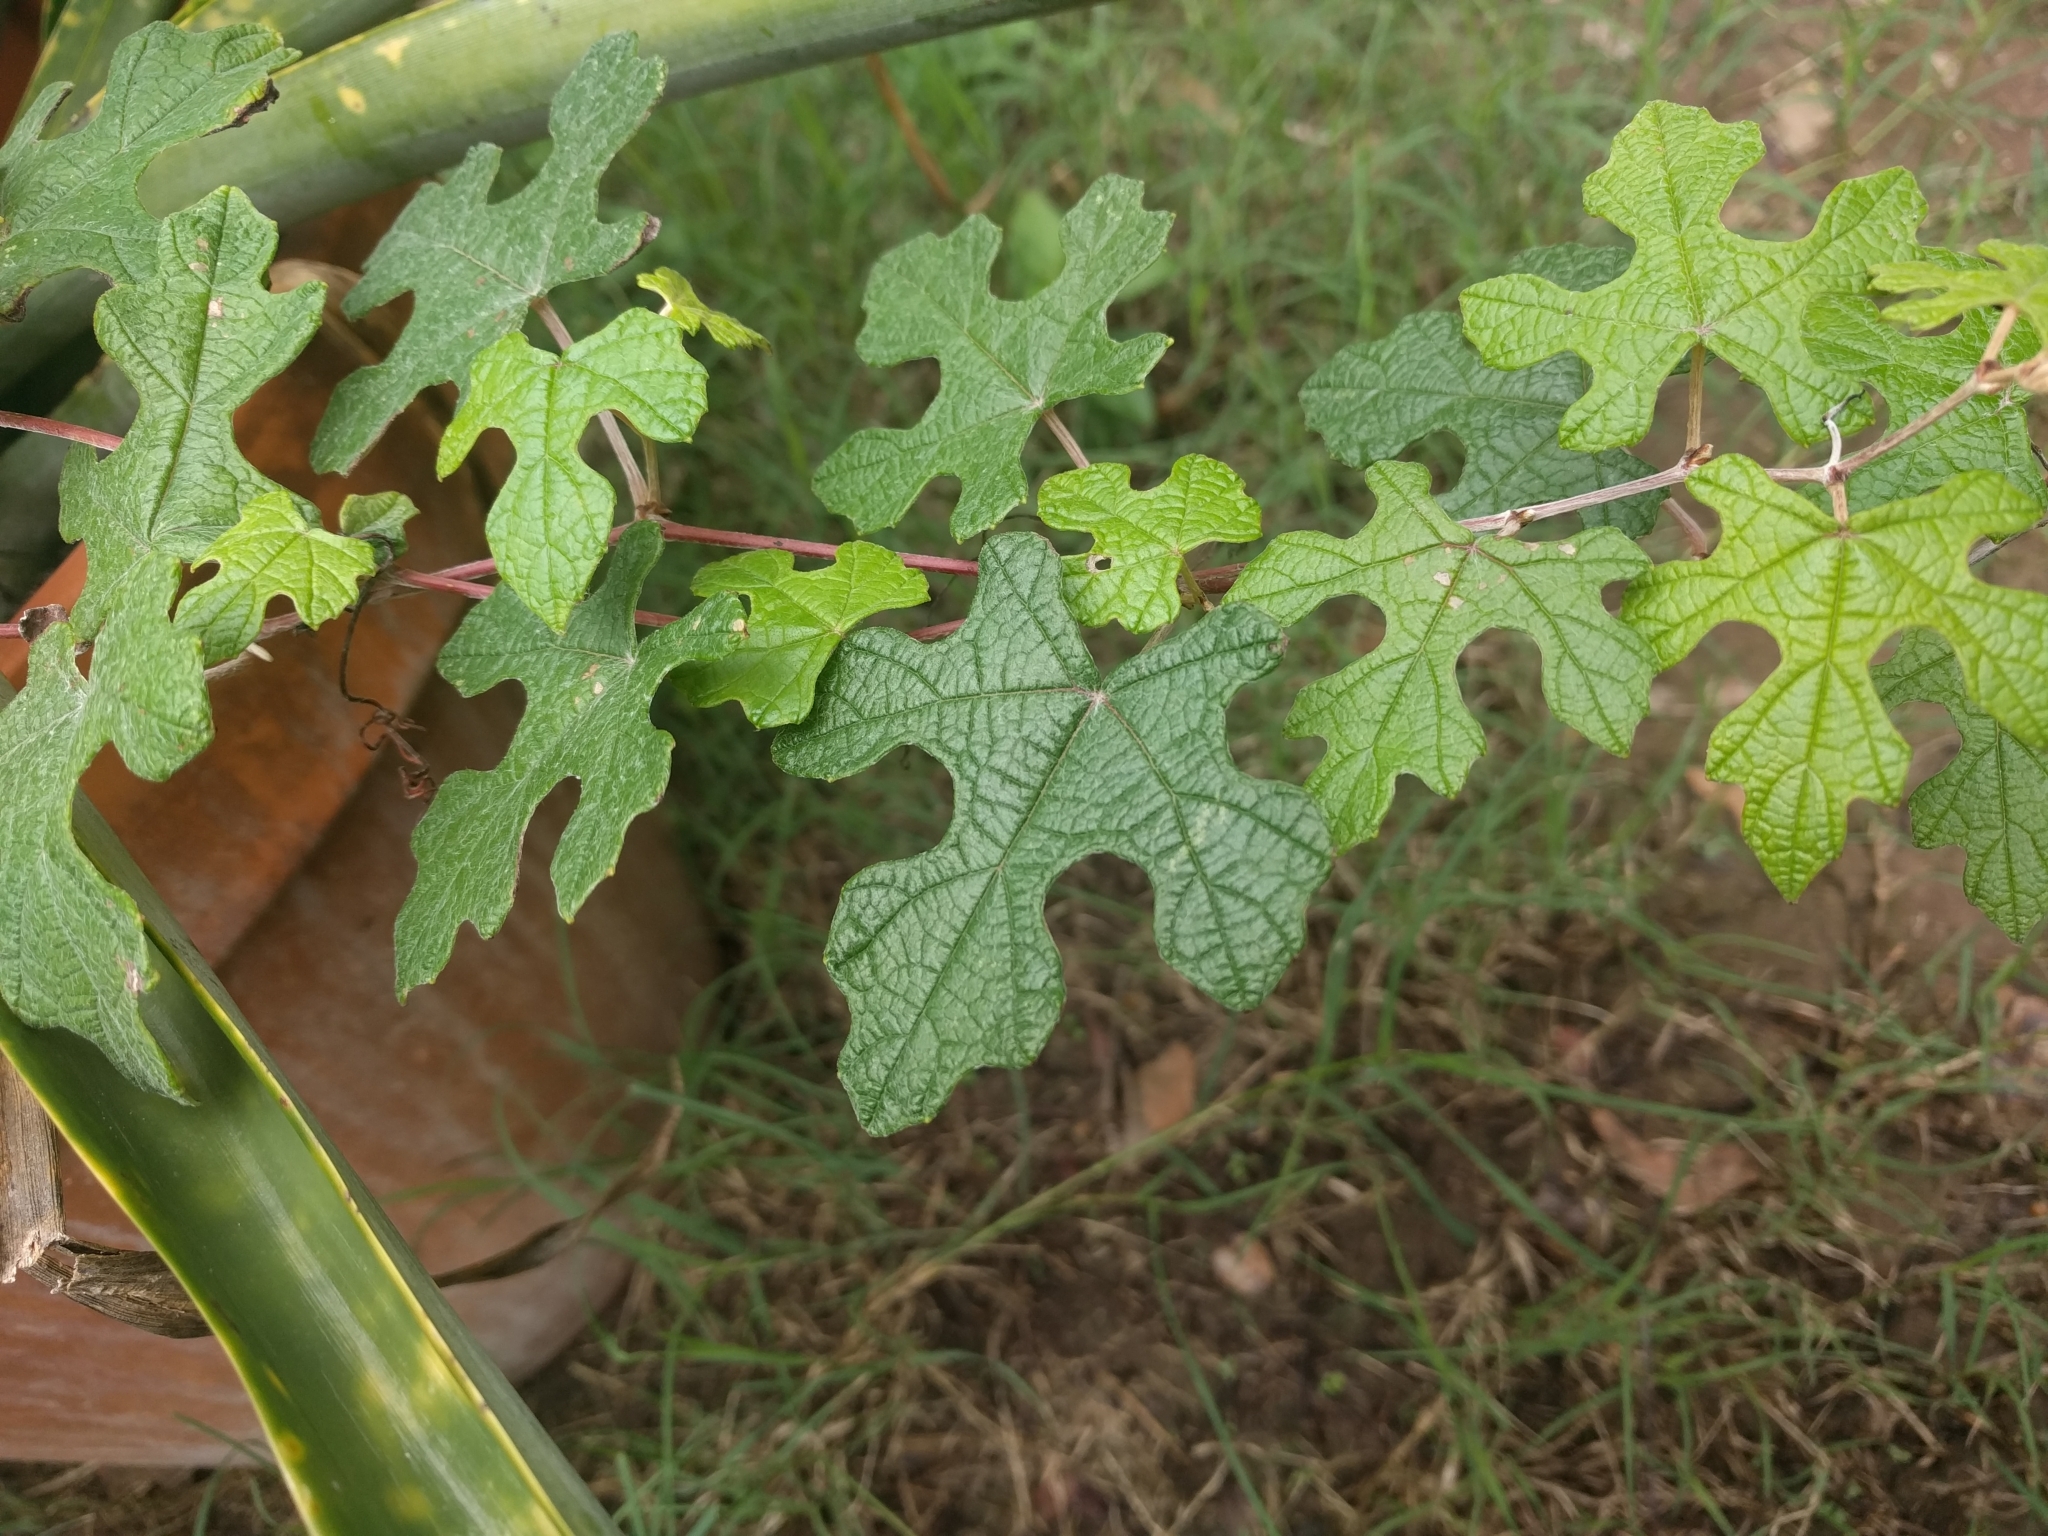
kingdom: Plantae
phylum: Tracheophyta
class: Magnoliopsida
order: Vitales
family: Vitaceae
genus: Vitis
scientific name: Vitis mustangensis
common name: Mustang grape
